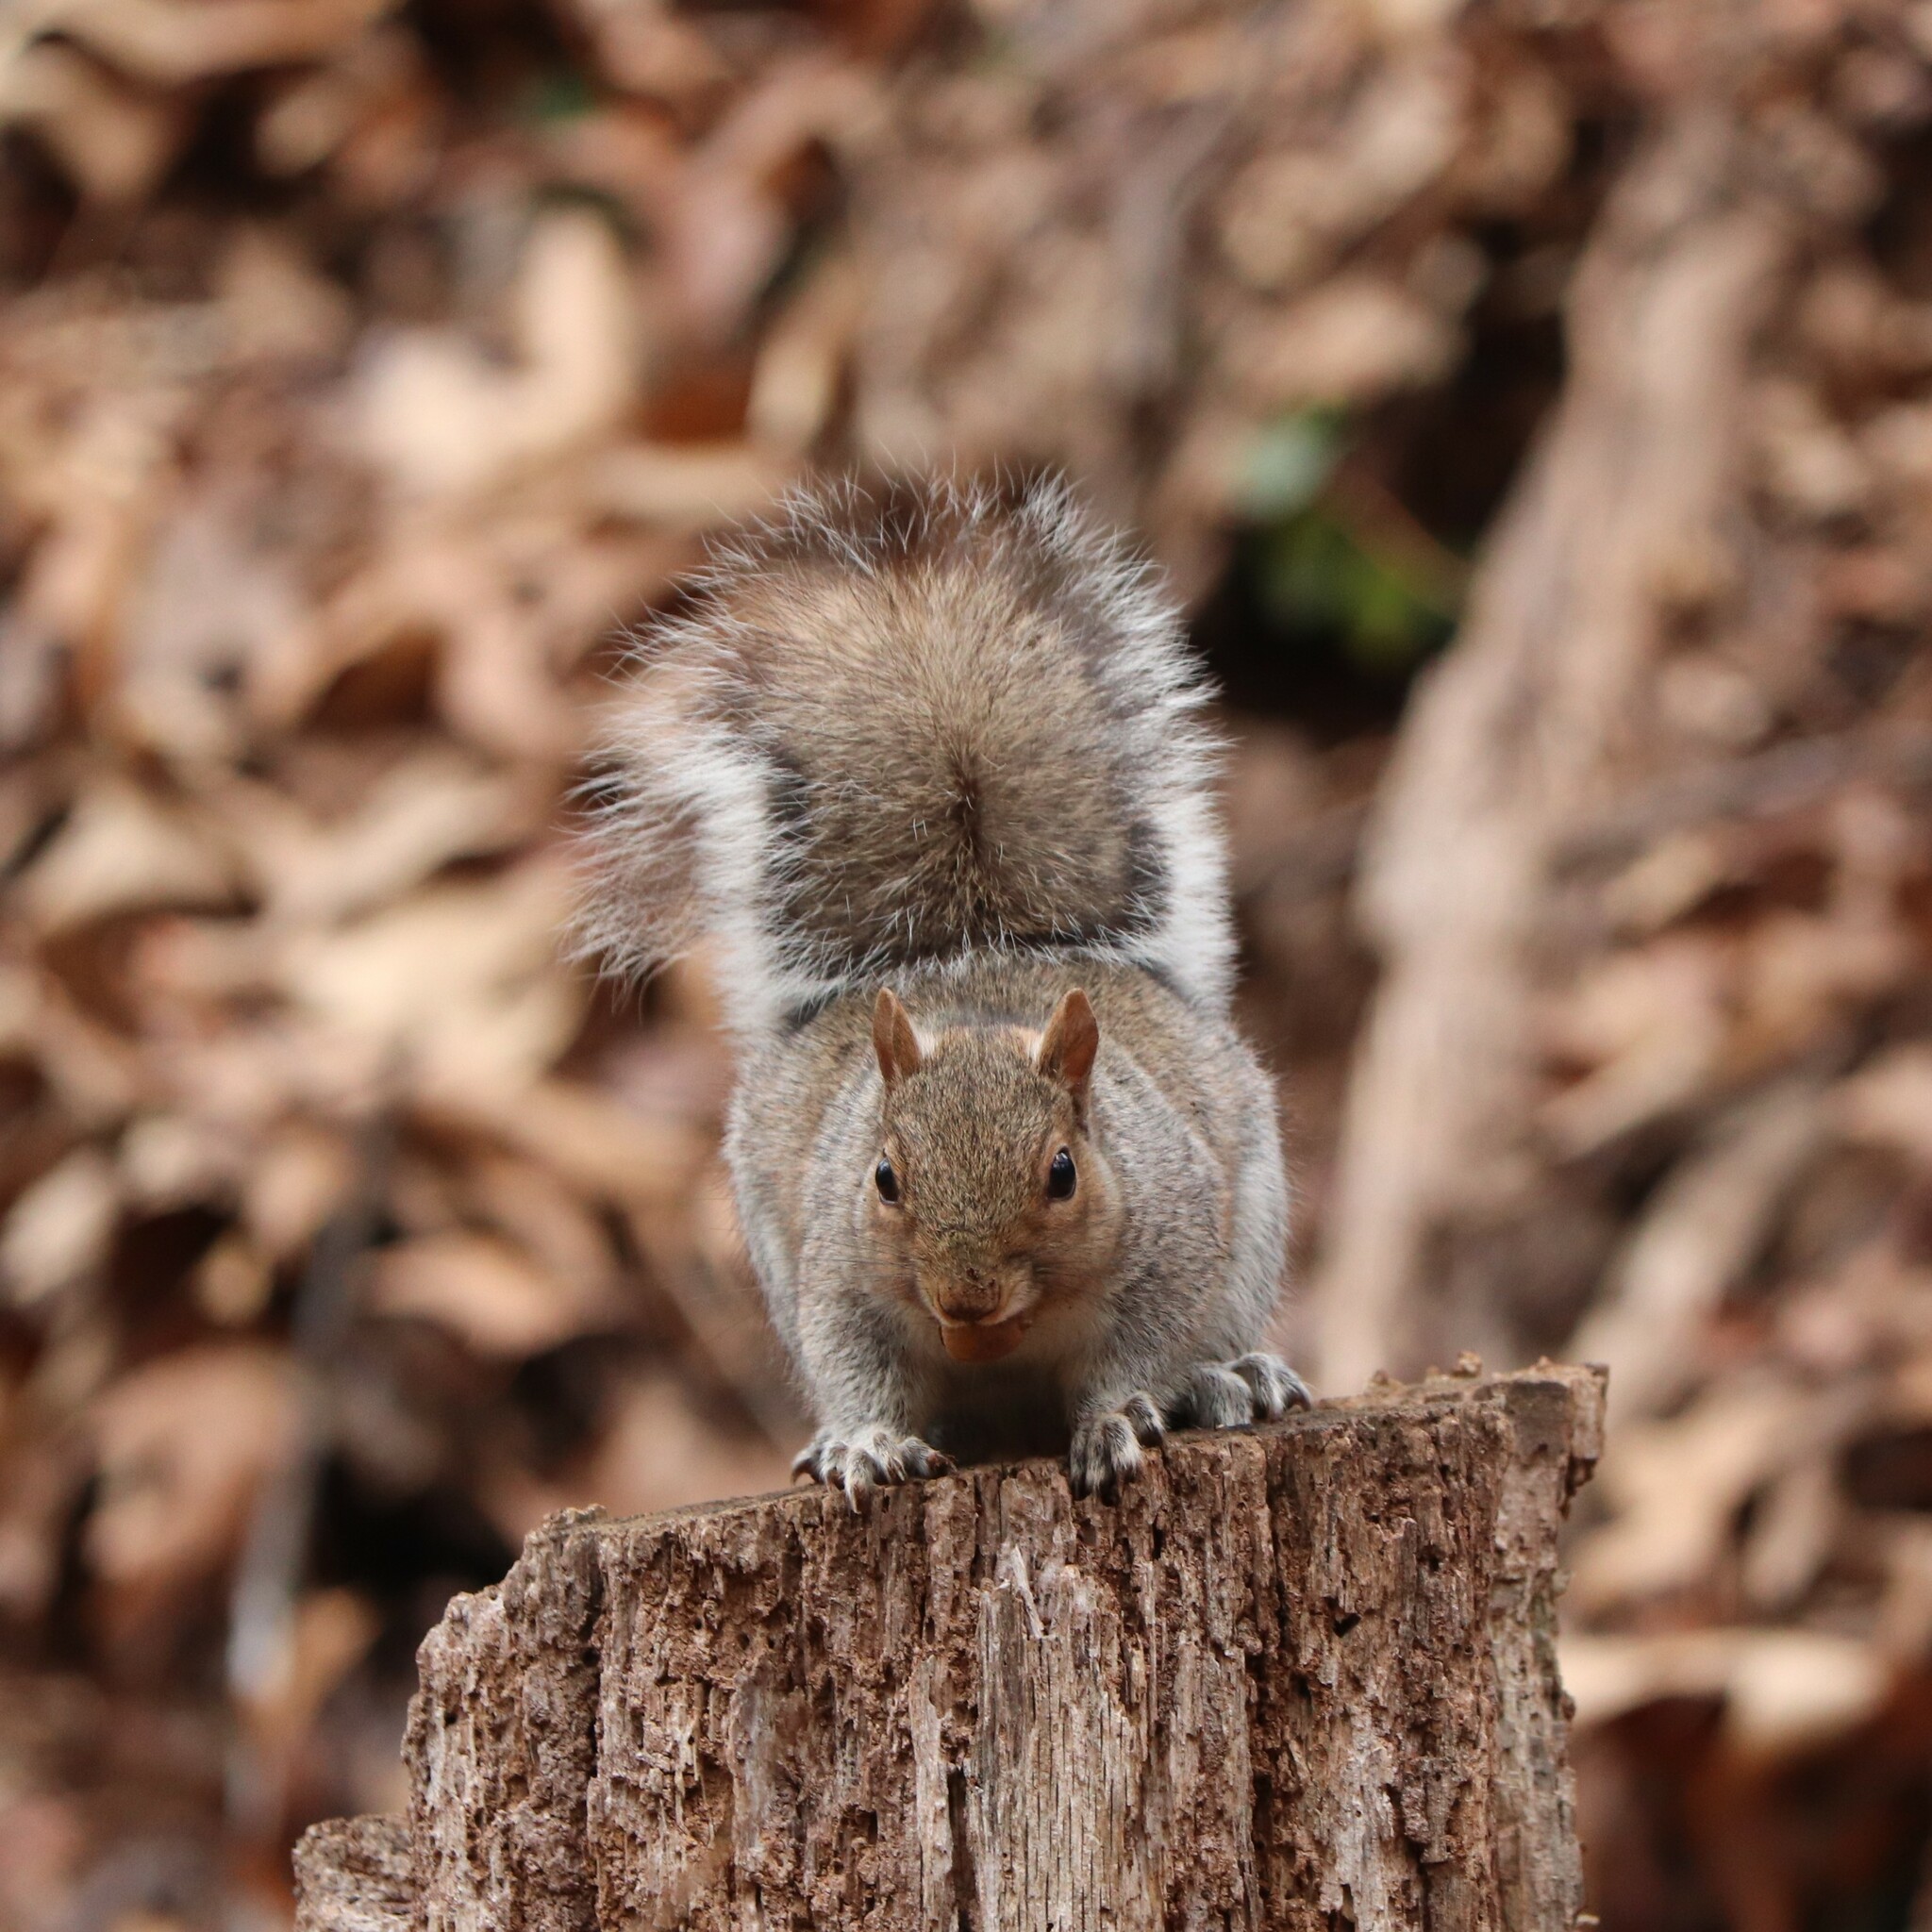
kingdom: Animalia
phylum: Chordata
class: Mammalia
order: Rodentia
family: Sciuridae
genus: Sciurus
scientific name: Sciurus carolinensis
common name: Eastern gray squirrel
